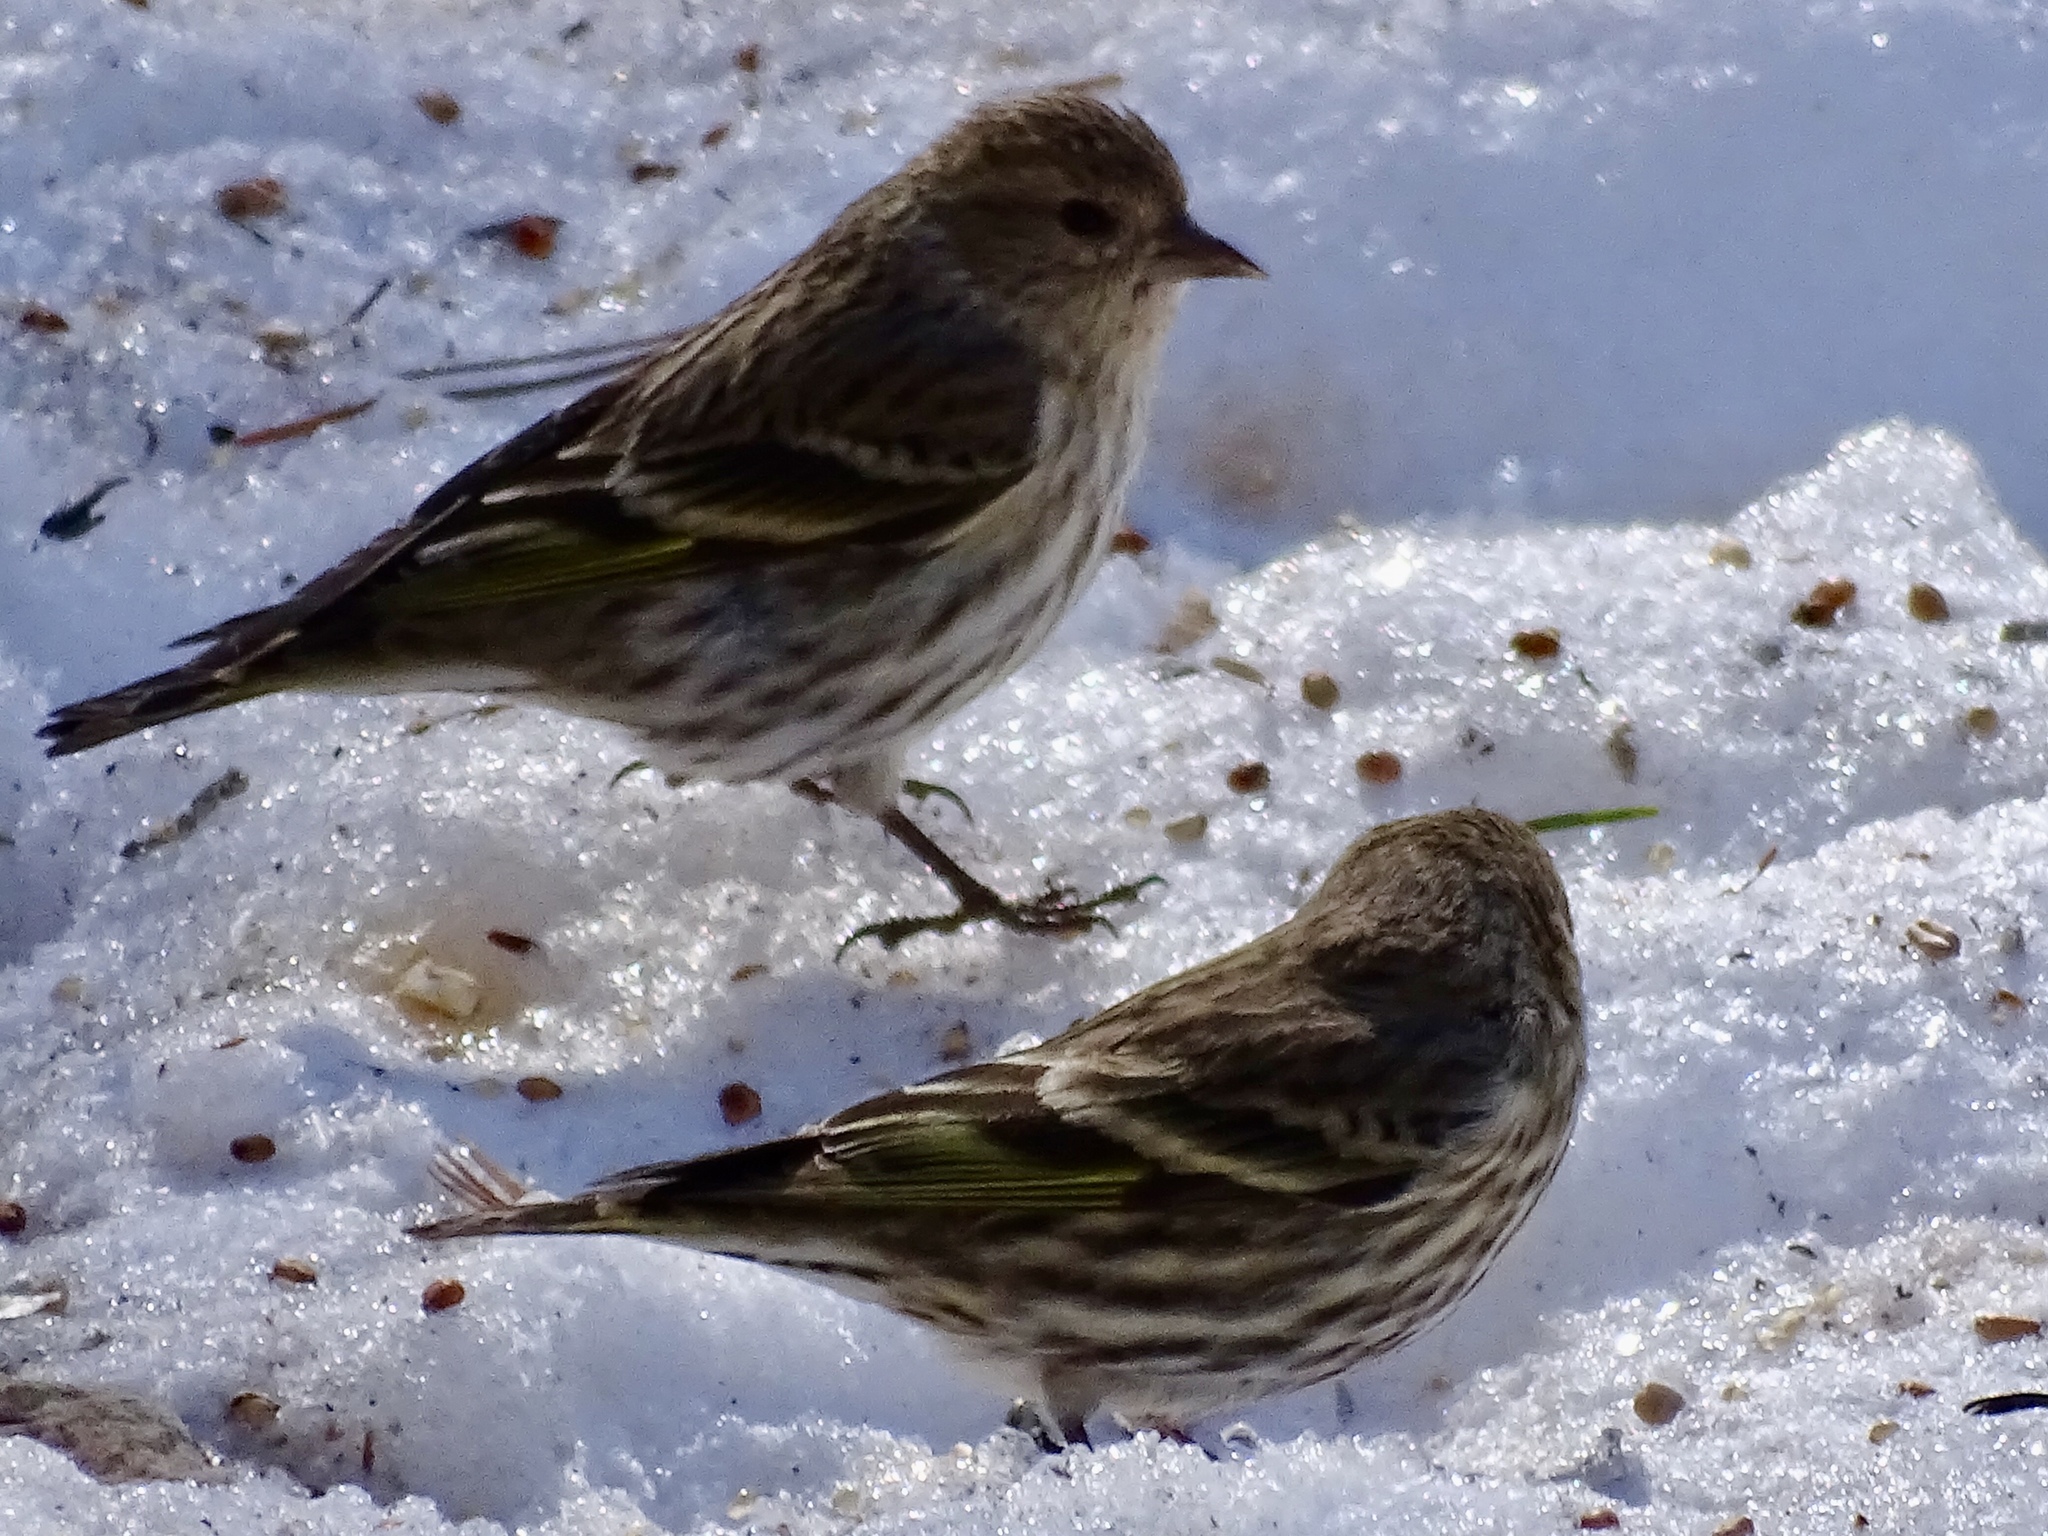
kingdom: Animalia
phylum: Chordata
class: Aves
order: Passeriformes
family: Fringillidae
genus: Spinus
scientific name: Spinus pinus
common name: Pine siskin
